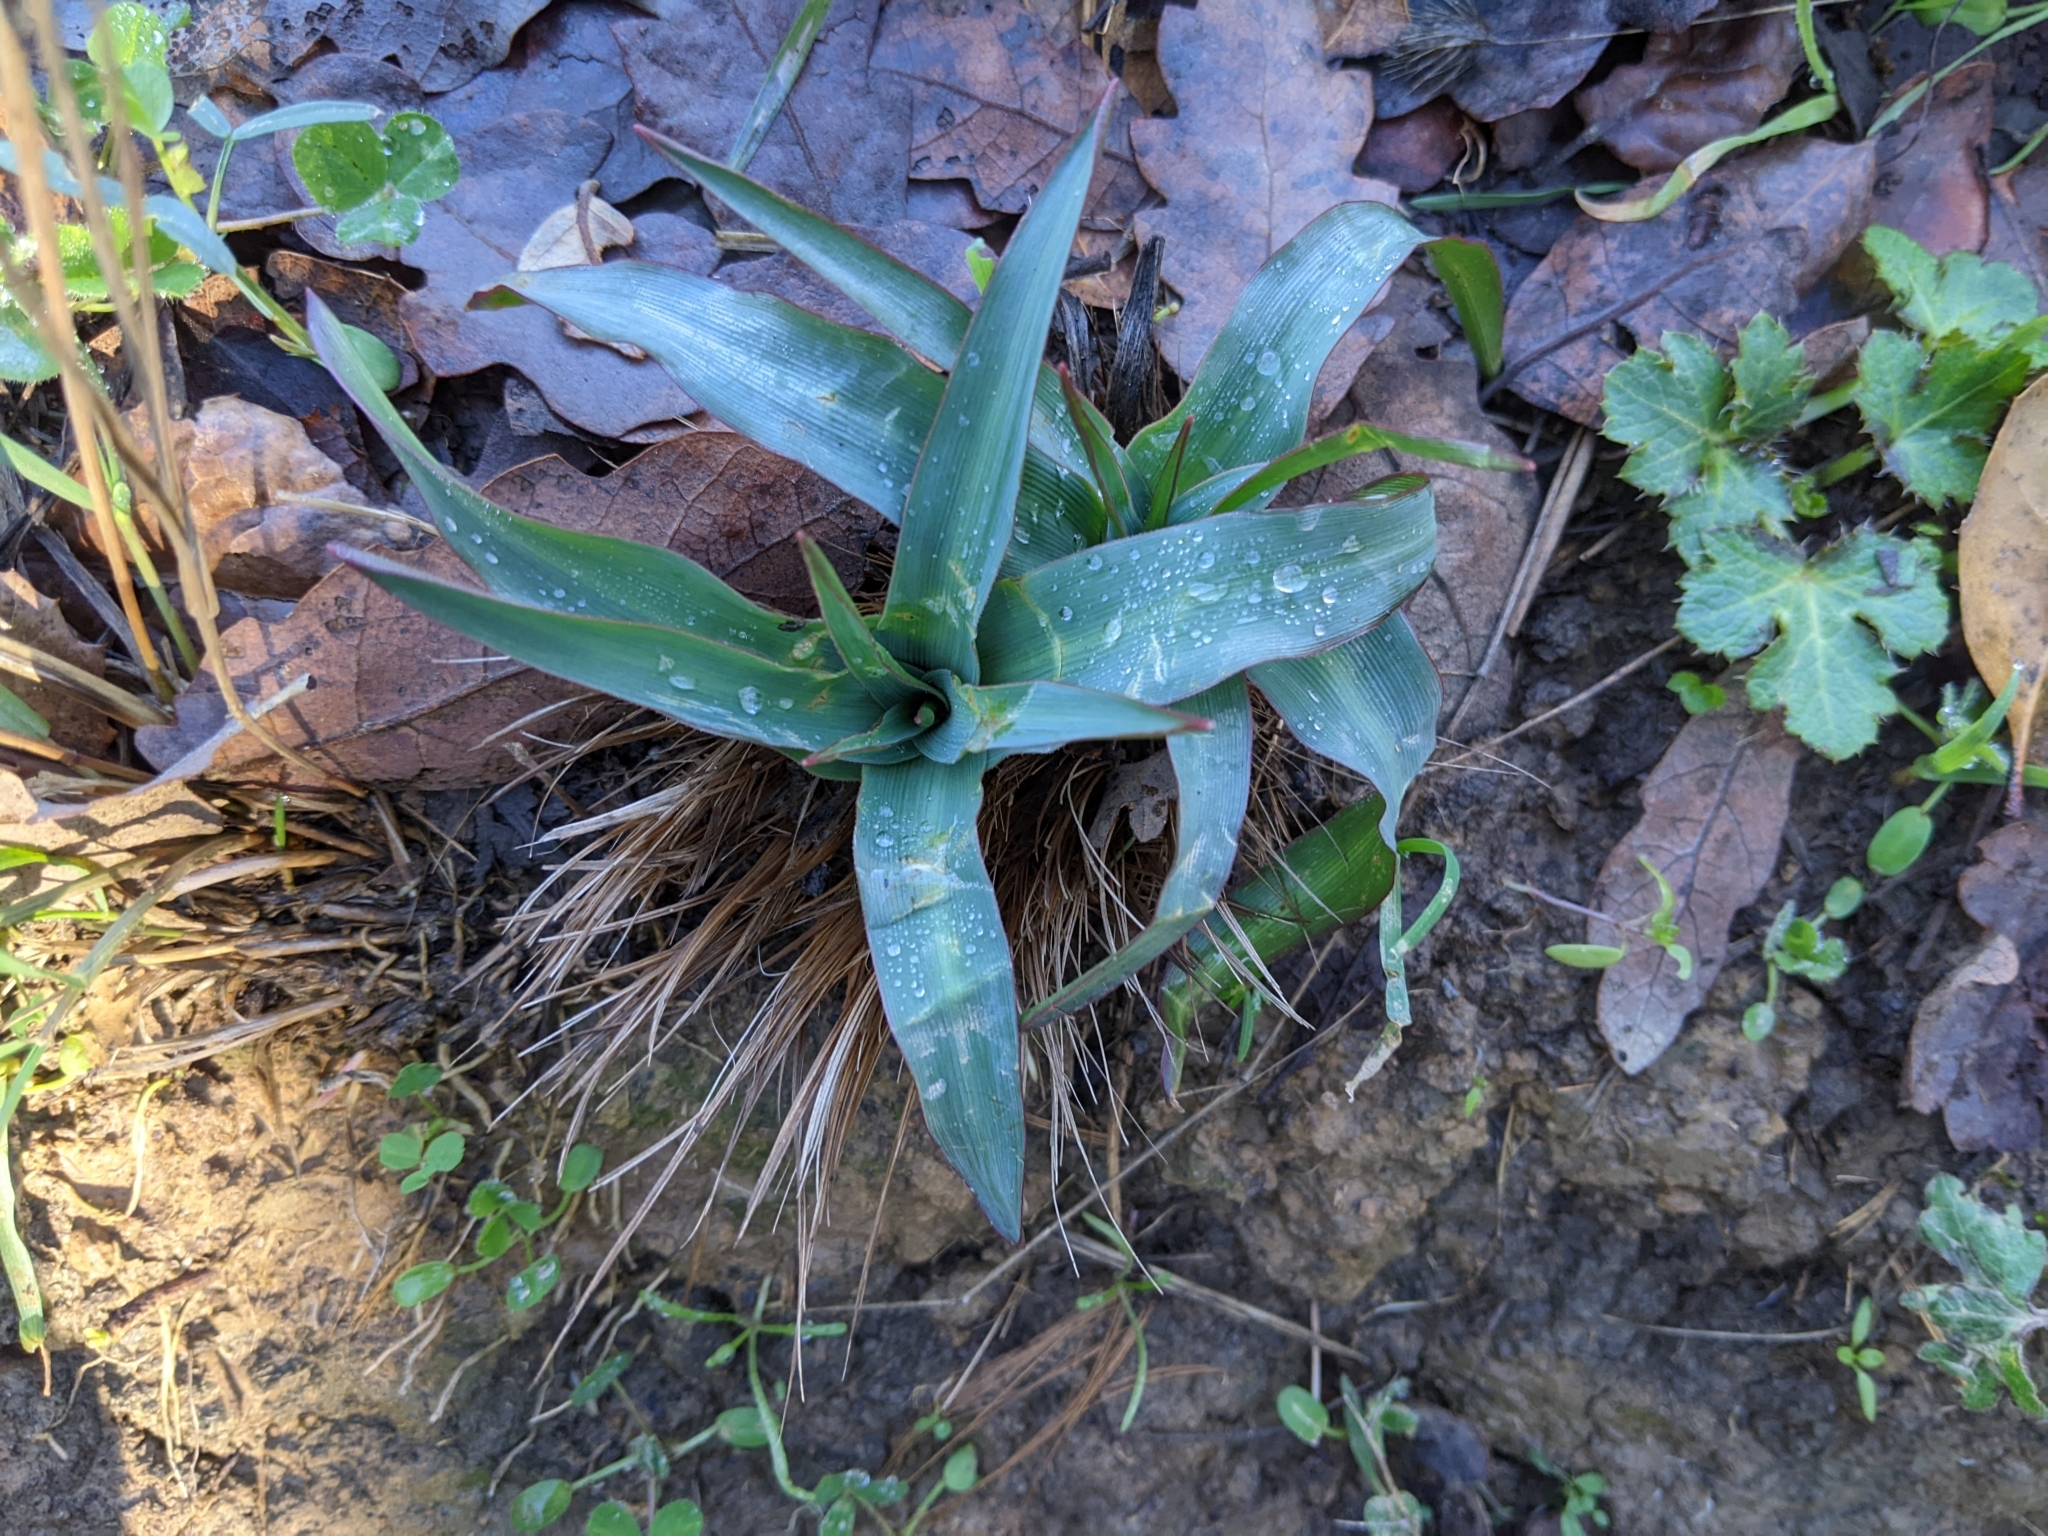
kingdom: Plantae
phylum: Tracheophyta
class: Liliopsida
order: Asparagales
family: Asparagaceae
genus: Chlorogalum
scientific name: Chlorogalum pomeridianum
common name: Amole
